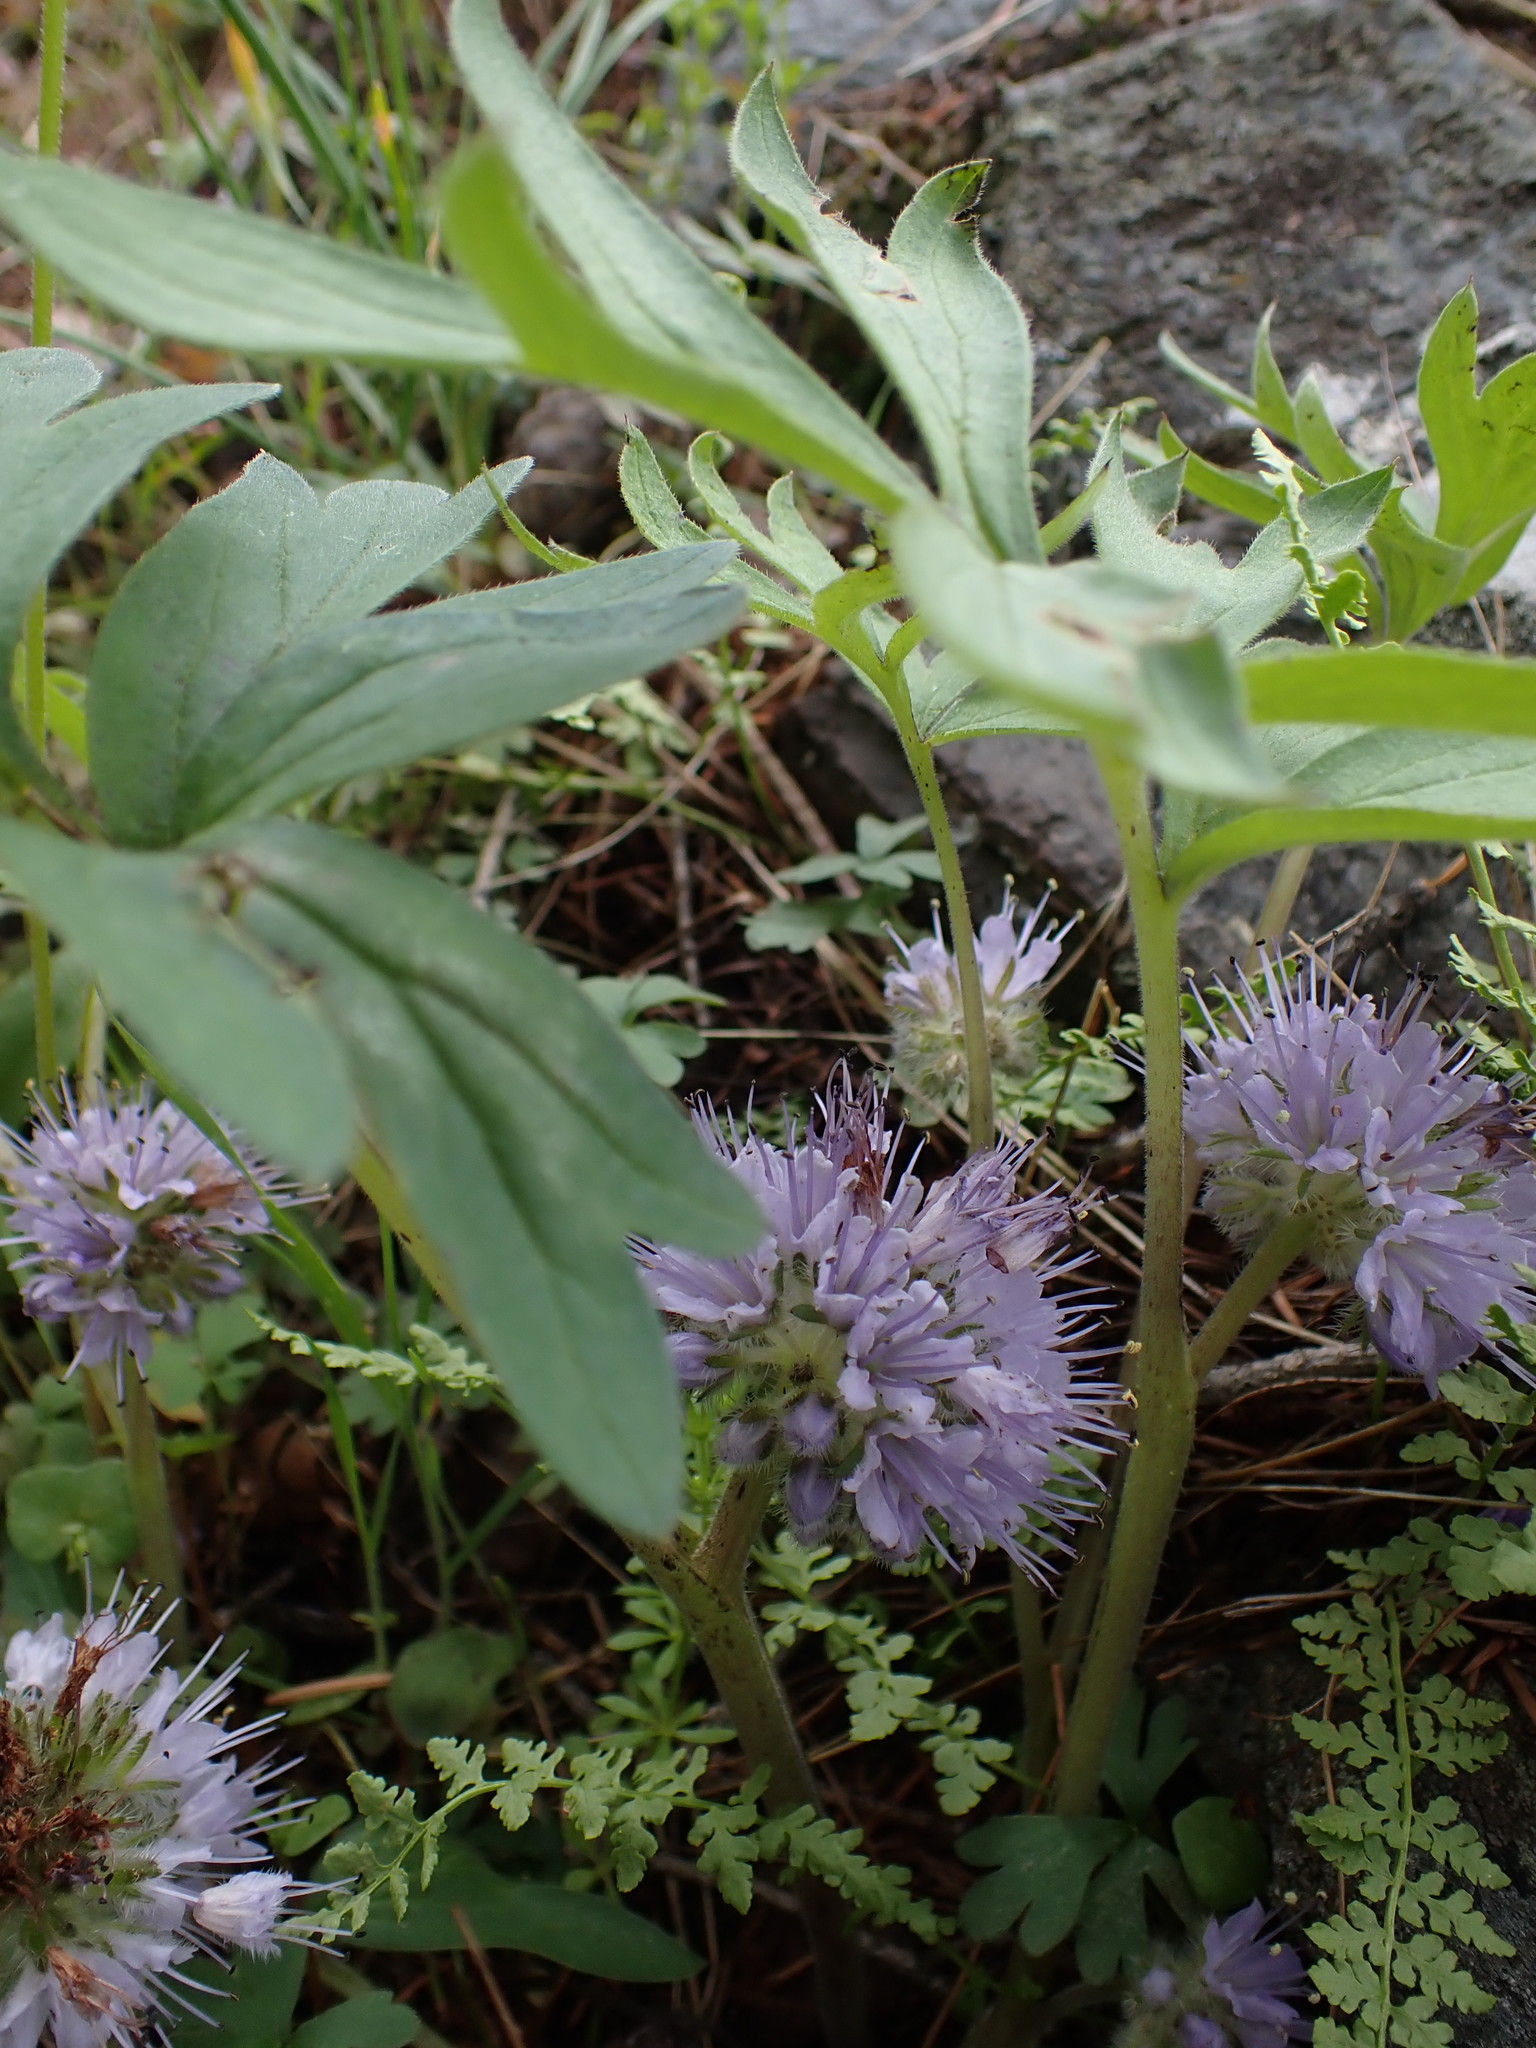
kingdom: Plantae
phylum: Tracheophyta
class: Magnoliopsida
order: Boraginales
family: Hydrophyllaceae
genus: Hydrophyllum
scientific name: Hydrophyllum capitatum
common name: Woollen-breeches
